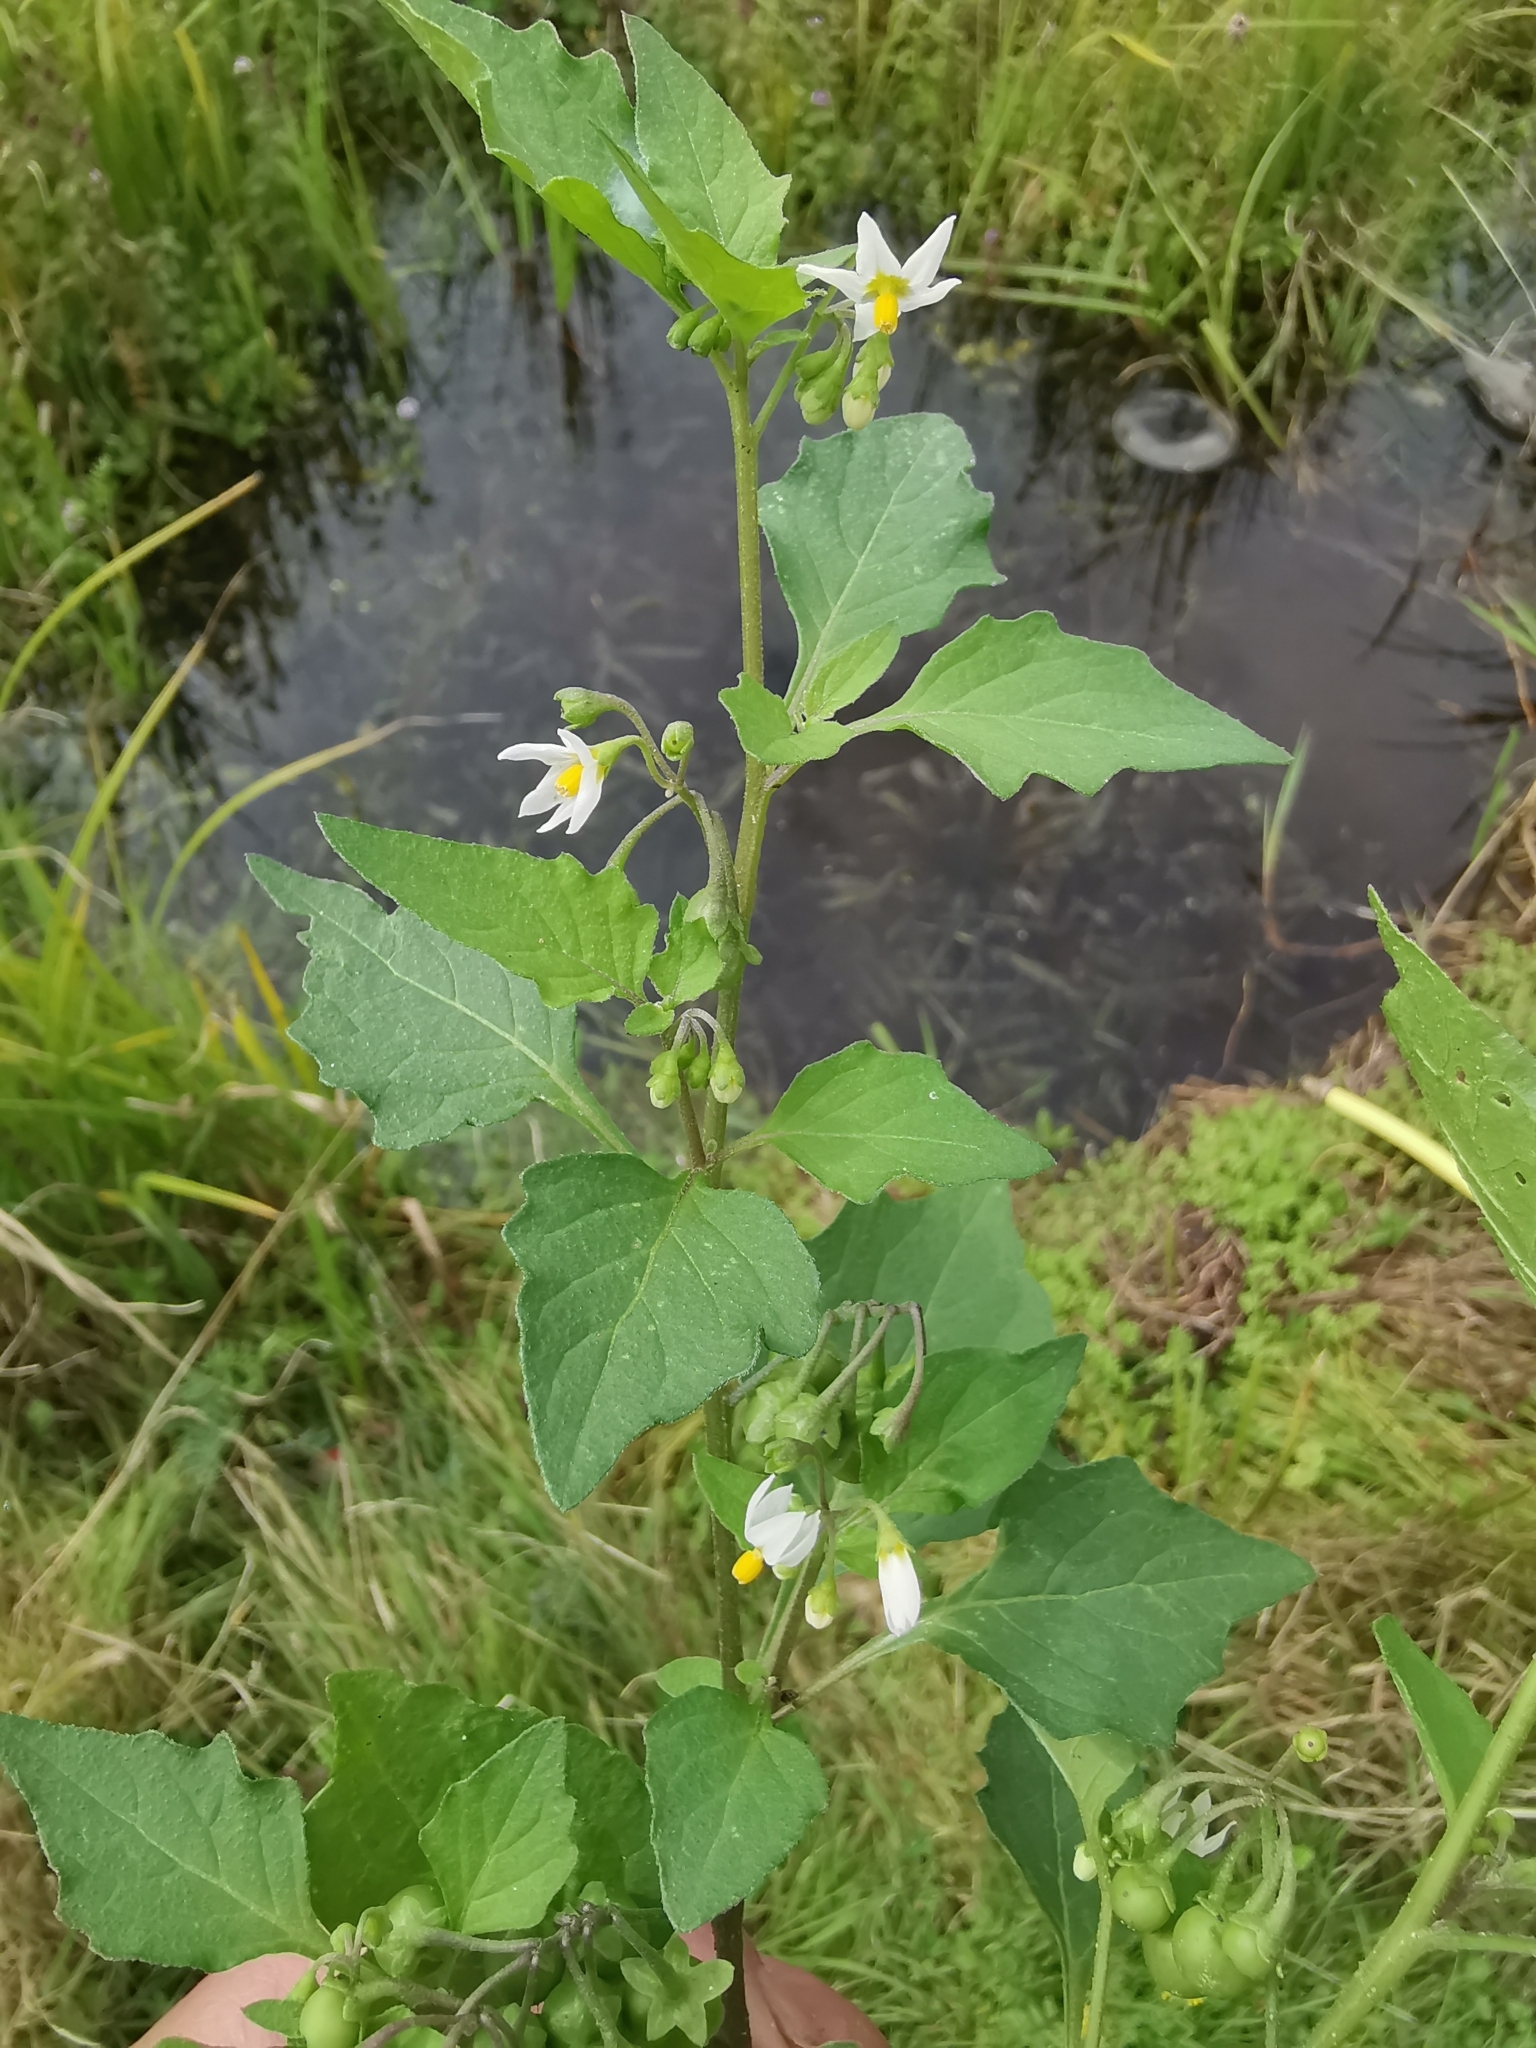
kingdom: Plantae
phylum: Tracheophyta
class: Magnoliopsida
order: Solanales
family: Solanaceae
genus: Solanum
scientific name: Solanum nigrum
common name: Black nightshade
